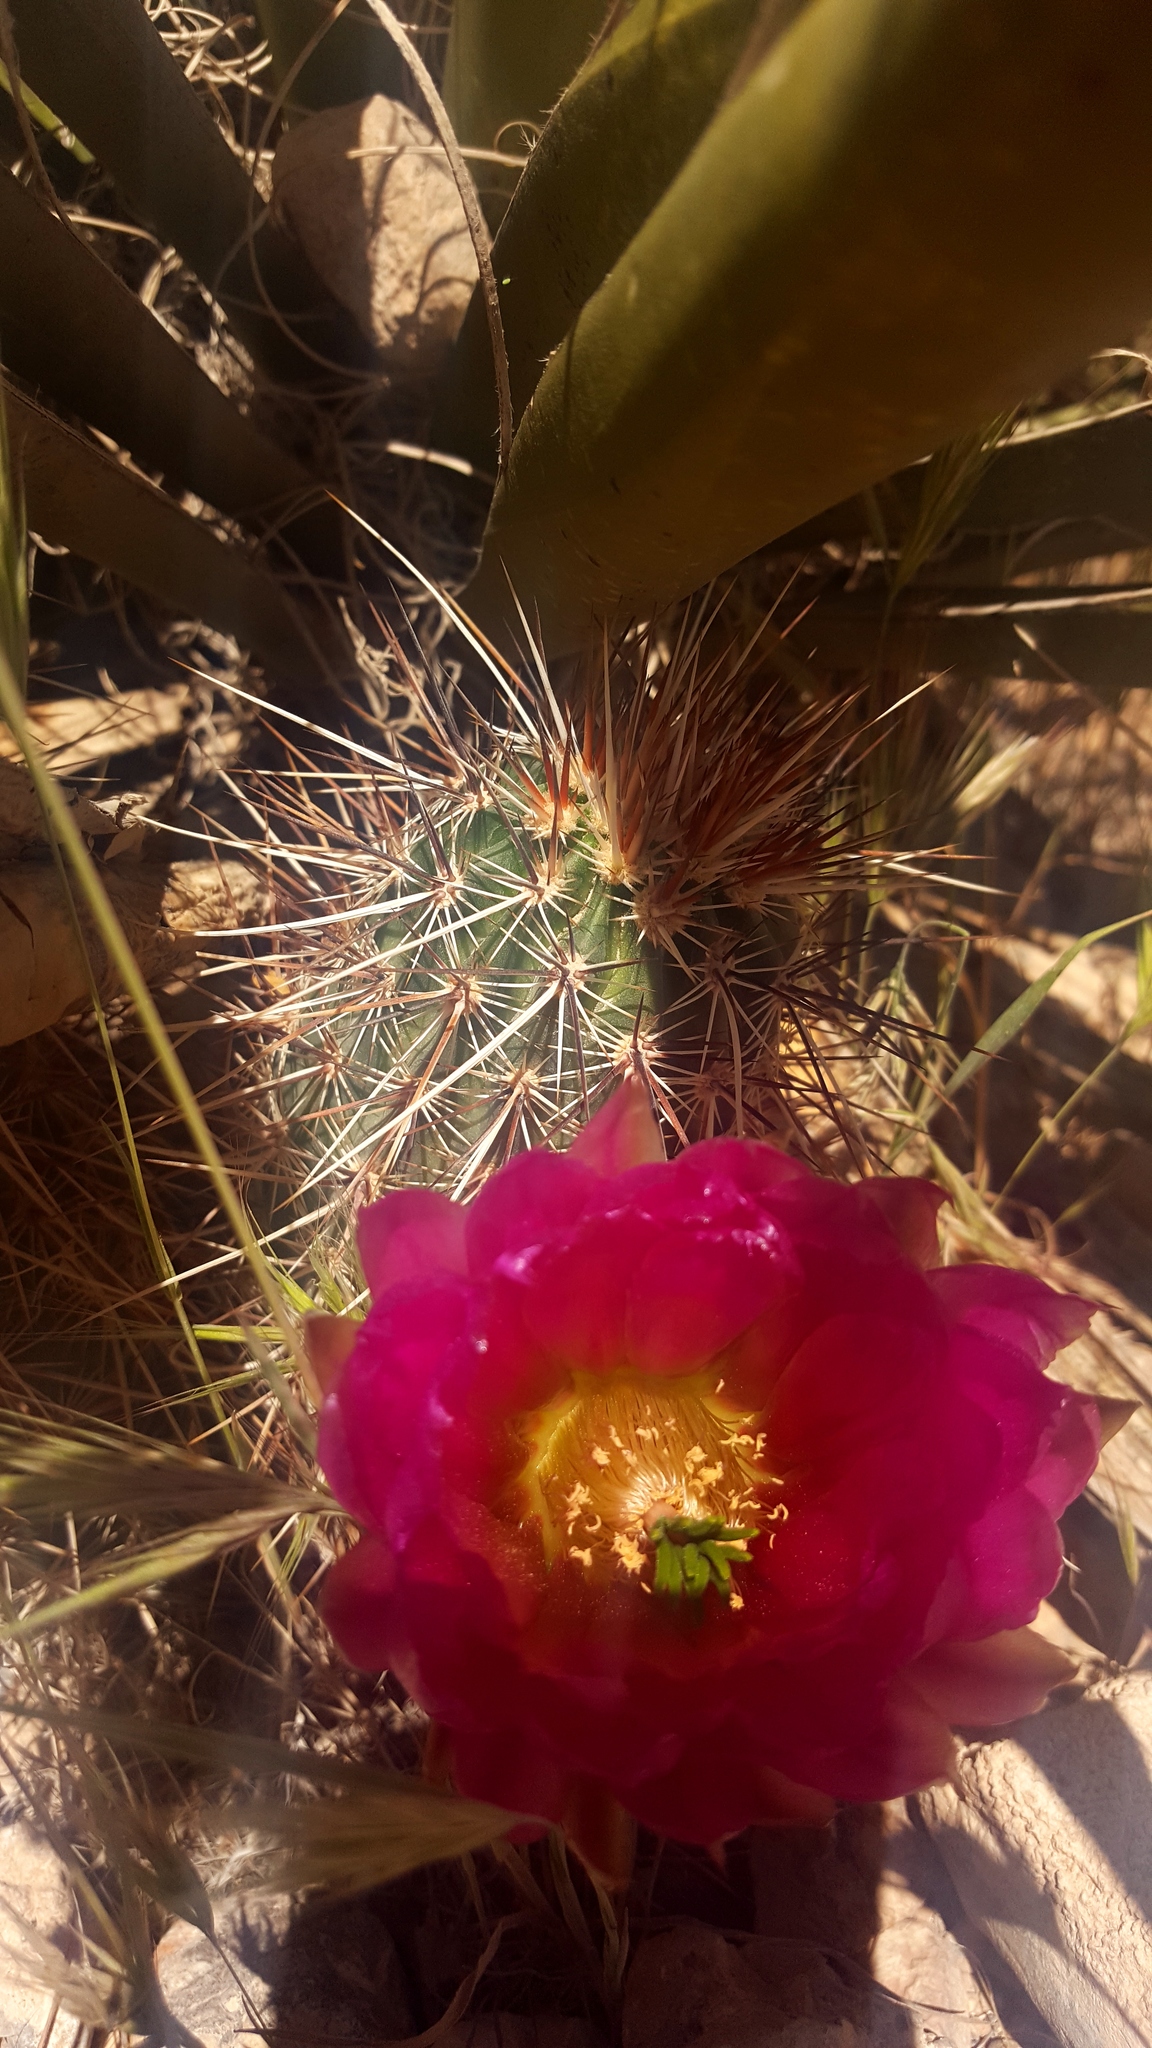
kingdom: Plantae
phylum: Tracheophyta
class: Magnoliopsida
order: Caryophyllales
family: Cactaceae
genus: Echinocereus
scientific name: Echinocereus engelmannii
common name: Engelmann's hedgehog cactus
